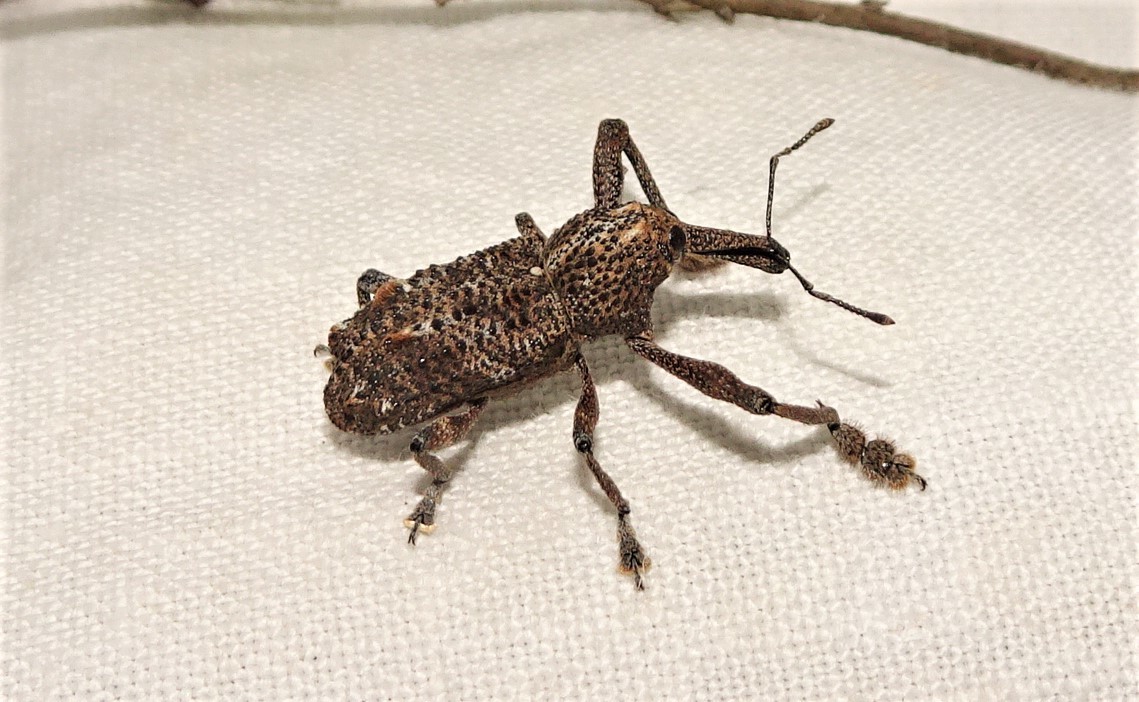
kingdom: Animalia
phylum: Arthropoda
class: Insecta
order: Coleoptera
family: Curculionidae
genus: Orthorhinus
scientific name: Orthorhinus cylindrirostris
